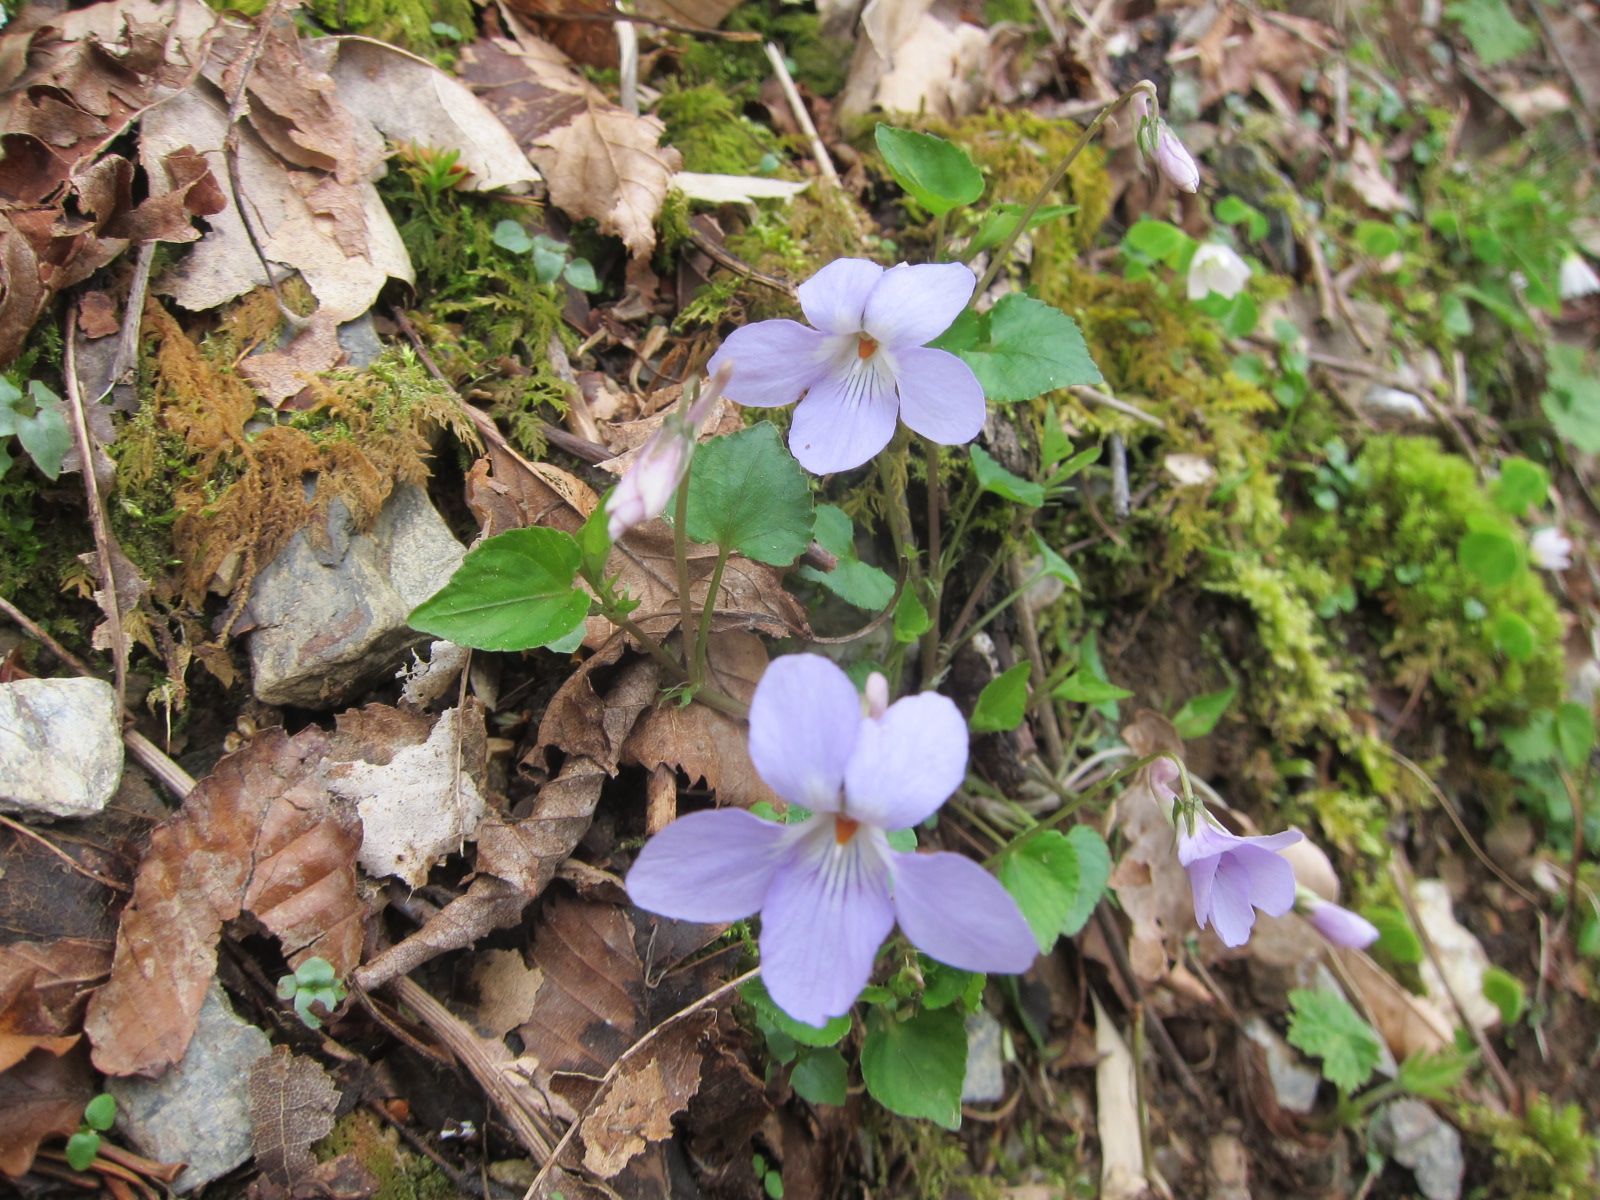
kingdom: Plantae
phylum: Tracheophyta
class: Magnoliopsida
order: Malpighiales
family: Violaceae
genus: Viola
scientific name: Viola grypoceras
